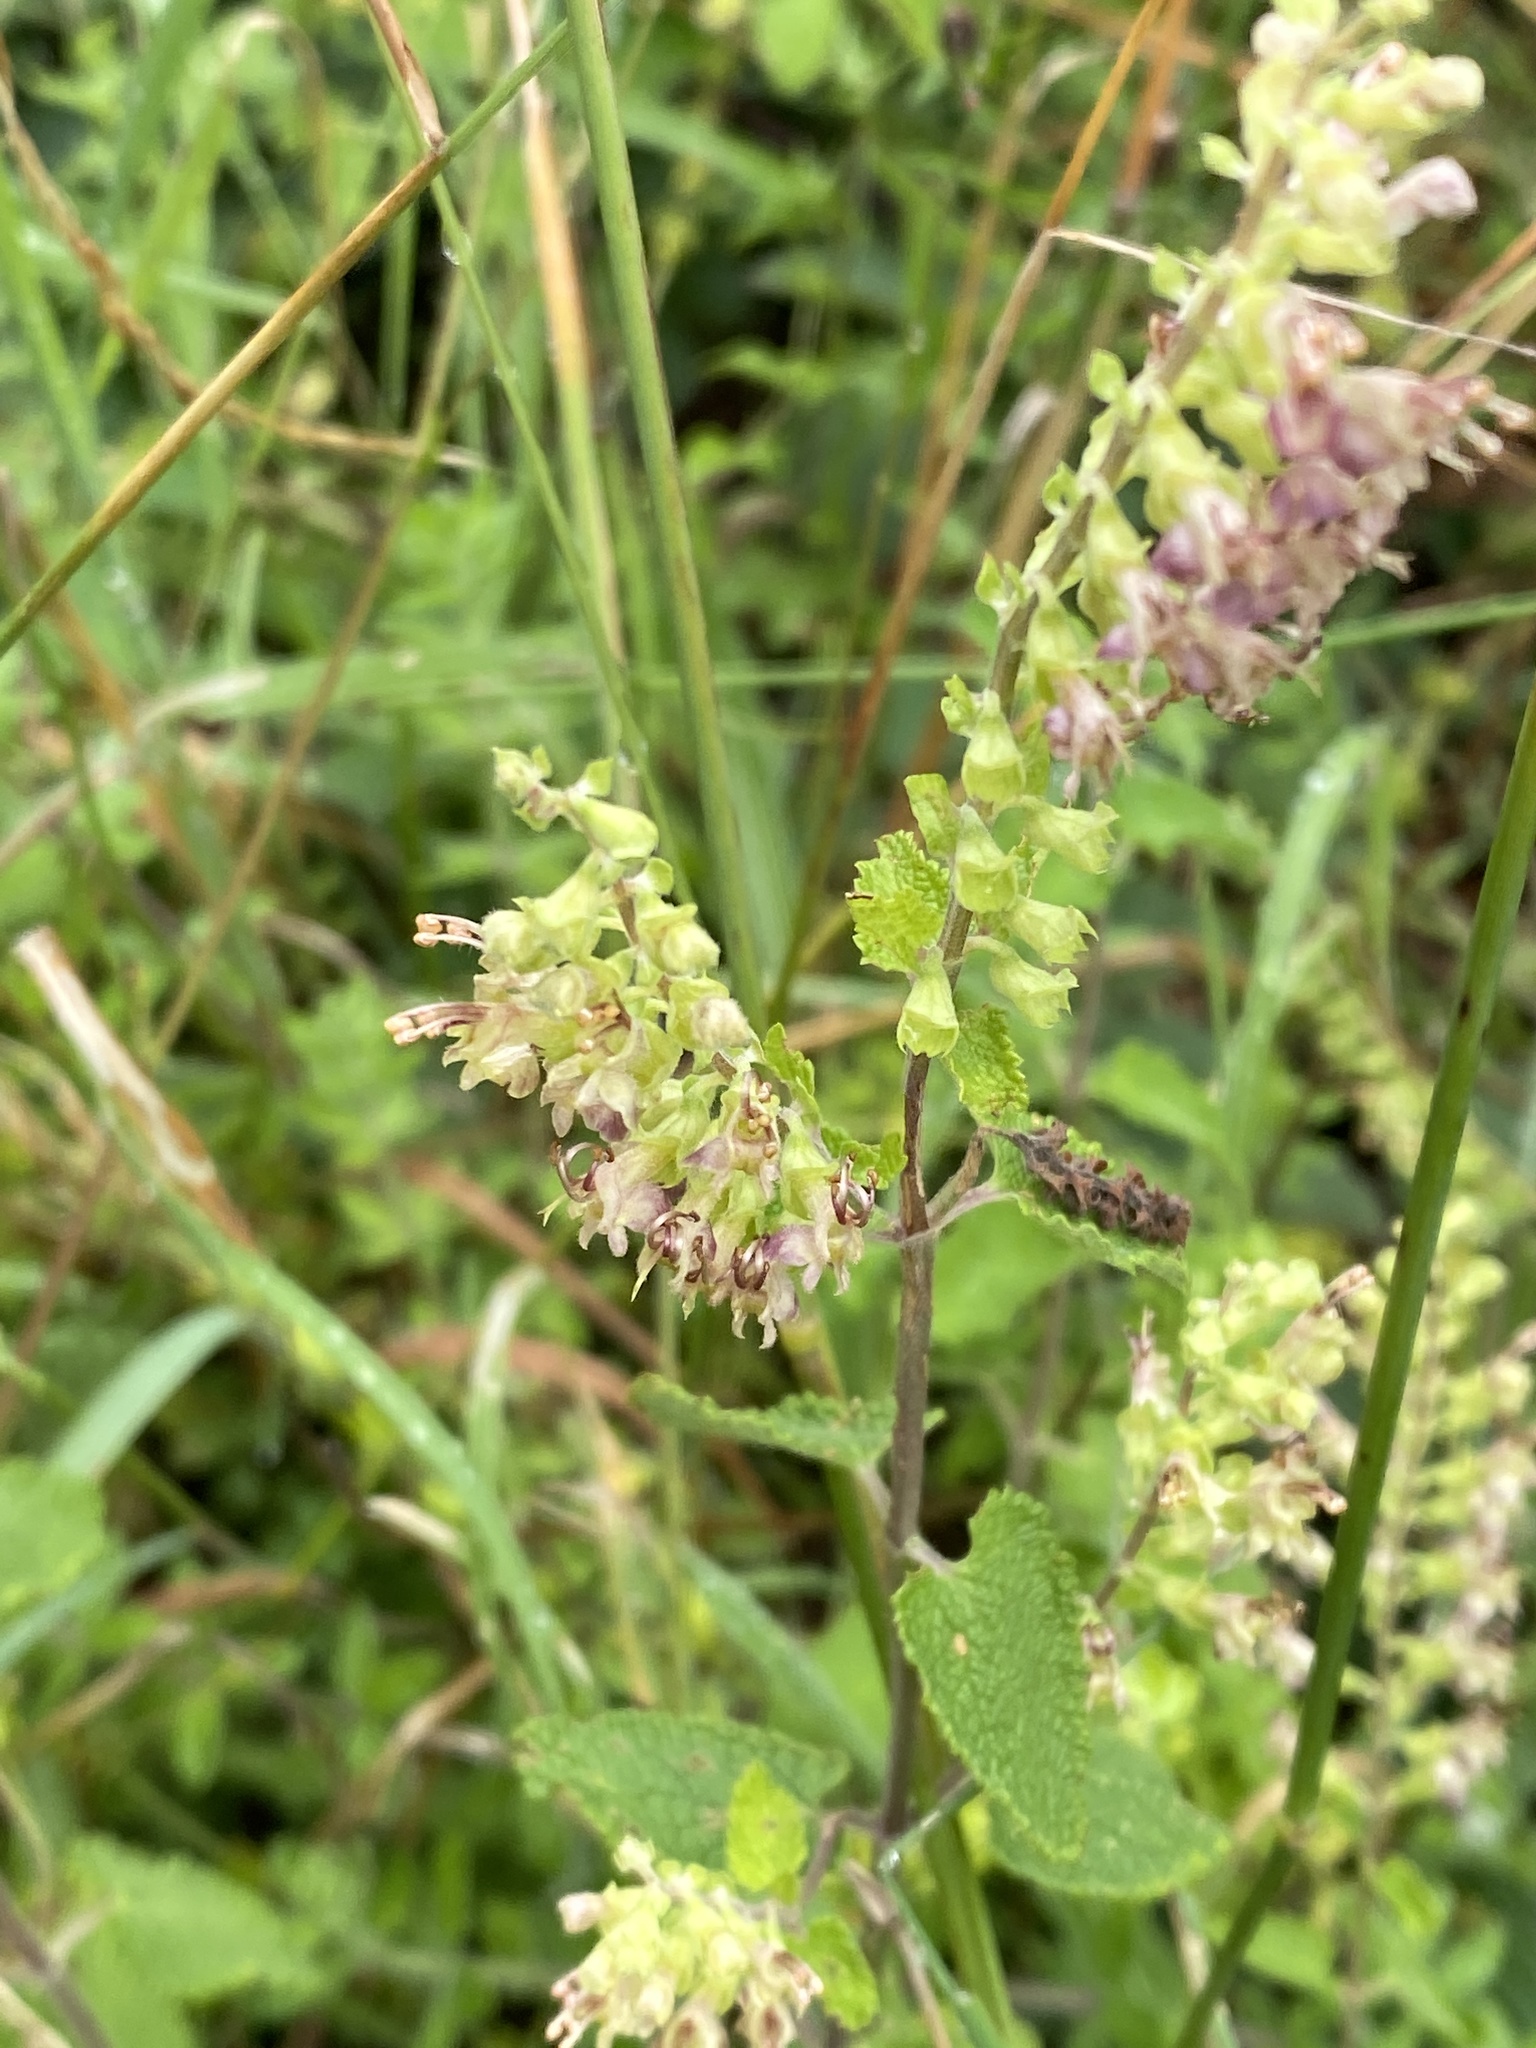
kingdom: Plantae
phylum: Tracheophyta
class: Magnoliopsida
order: Lamiales
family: Lamiaceae
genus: Teucrium
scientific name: Teucrium scorodonia
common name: Woodland germander
